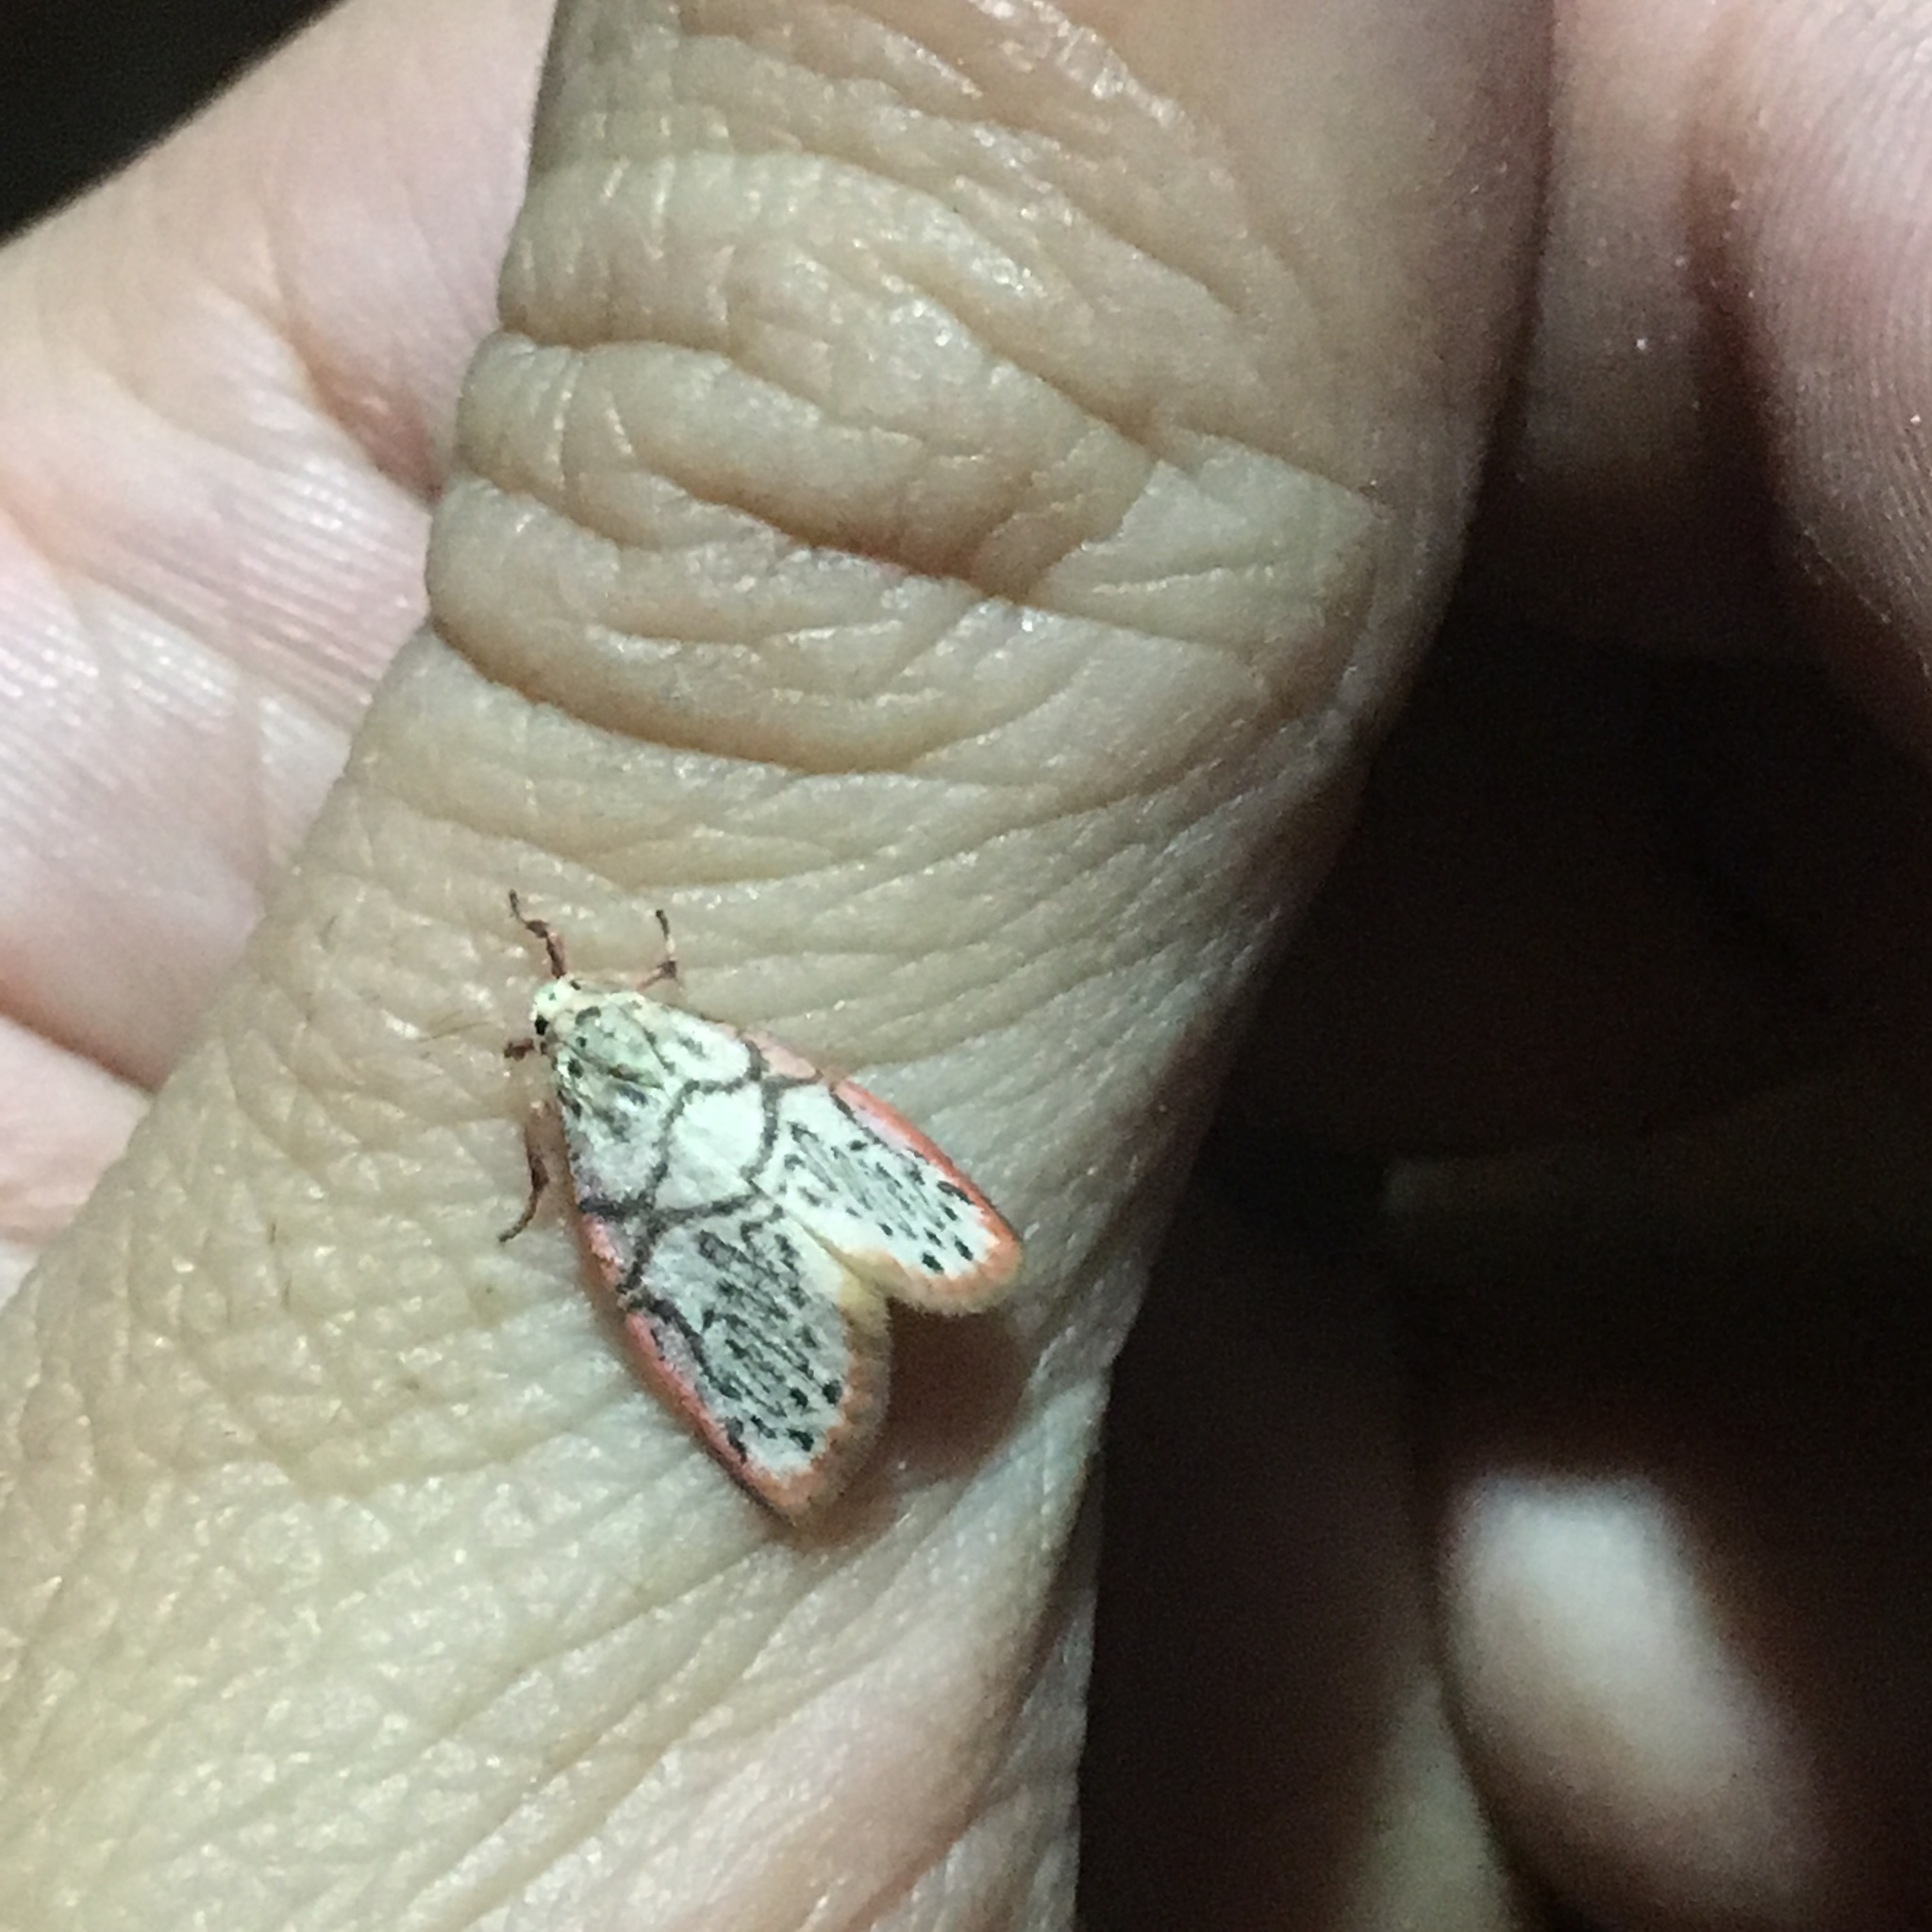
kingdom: Animalia
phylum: Arthropoda
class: Insecta
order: Lepidoptera
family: Erebidae
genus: Miltochrista
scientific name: Miltochrista irregularis
